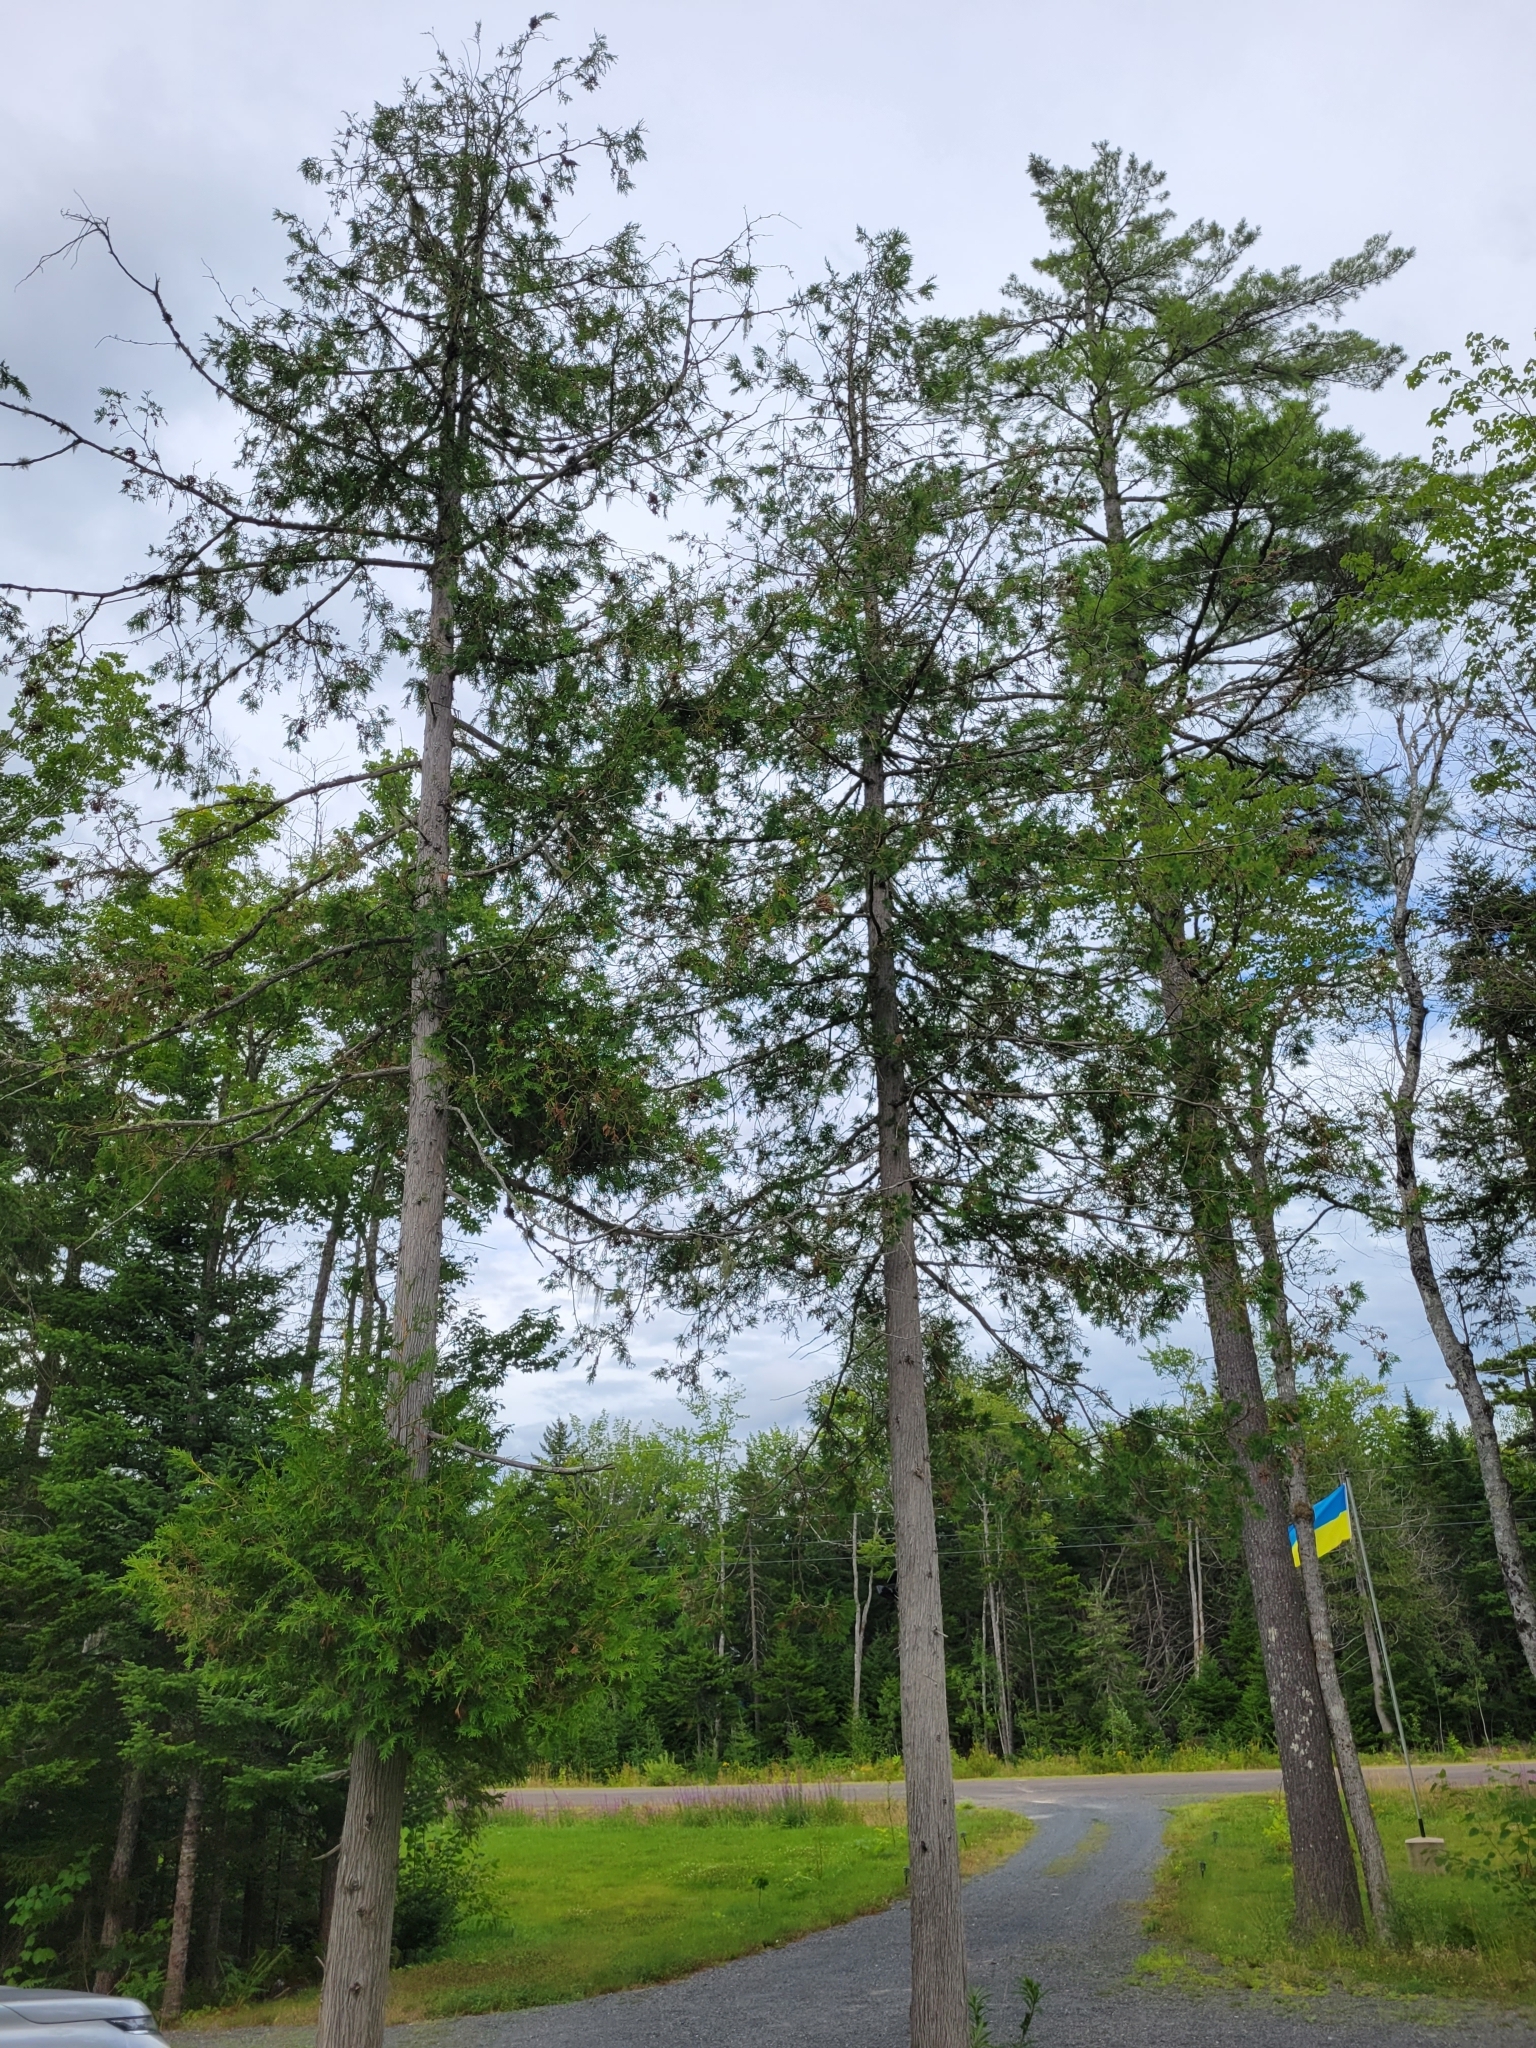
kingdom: Plantae
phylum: Tracheophyta
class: Pinopsida
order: Pinales
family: Cupressaceae
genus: Thuja
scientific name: Thuja occidentalis
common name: Northern white-cedar
